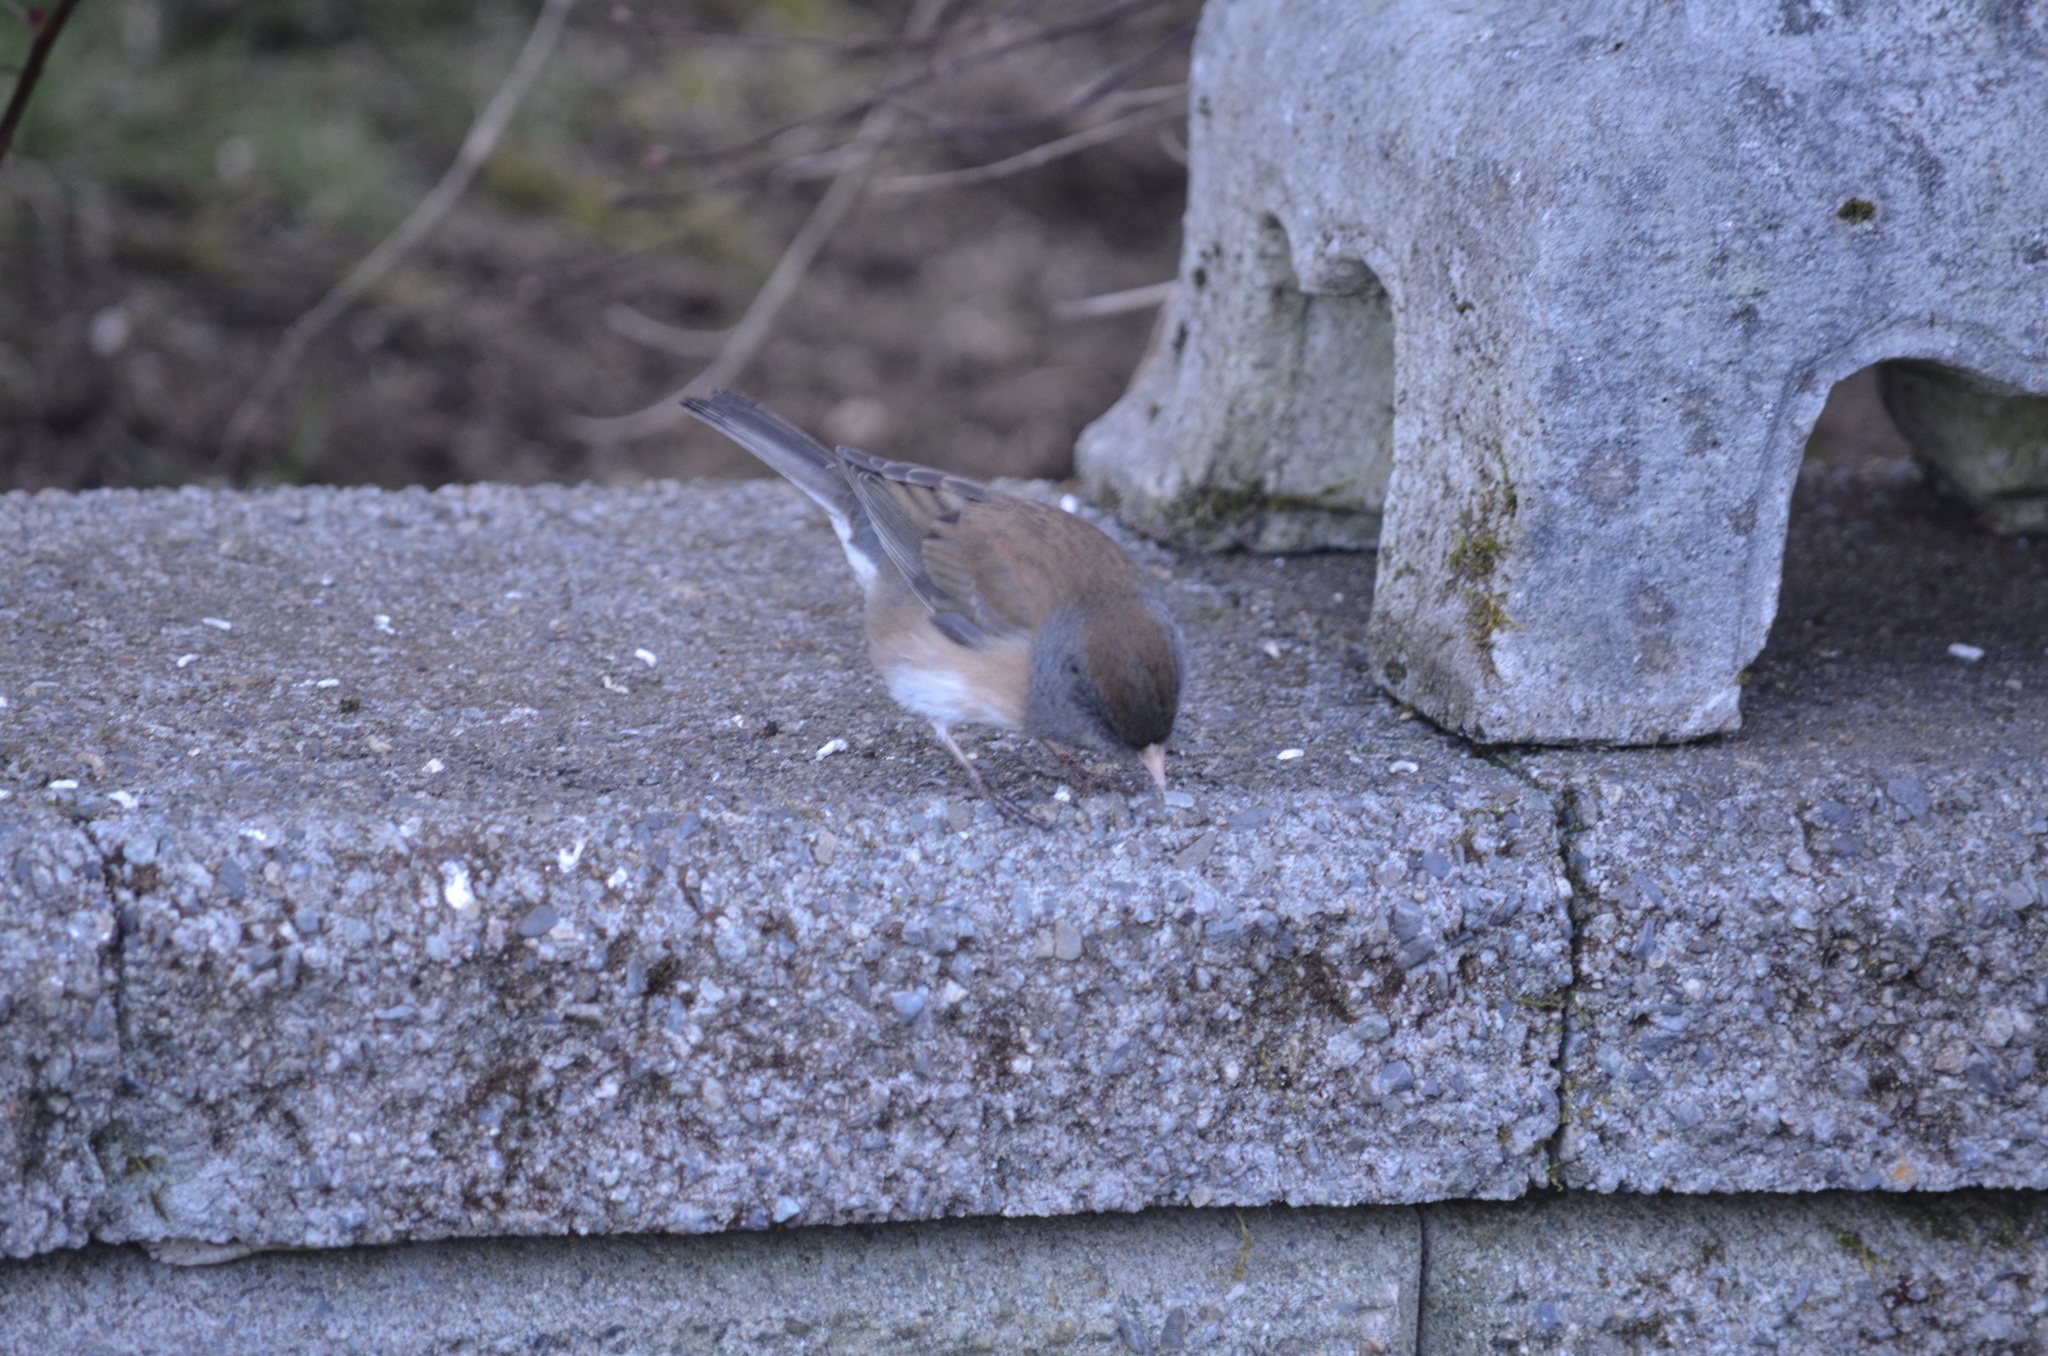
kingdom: Animalia
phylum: Chordata
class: Aves
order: Passeriformes
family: Passerellidae
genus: Junco
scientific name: Junco hyemalis
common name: Dark-eyed junco
